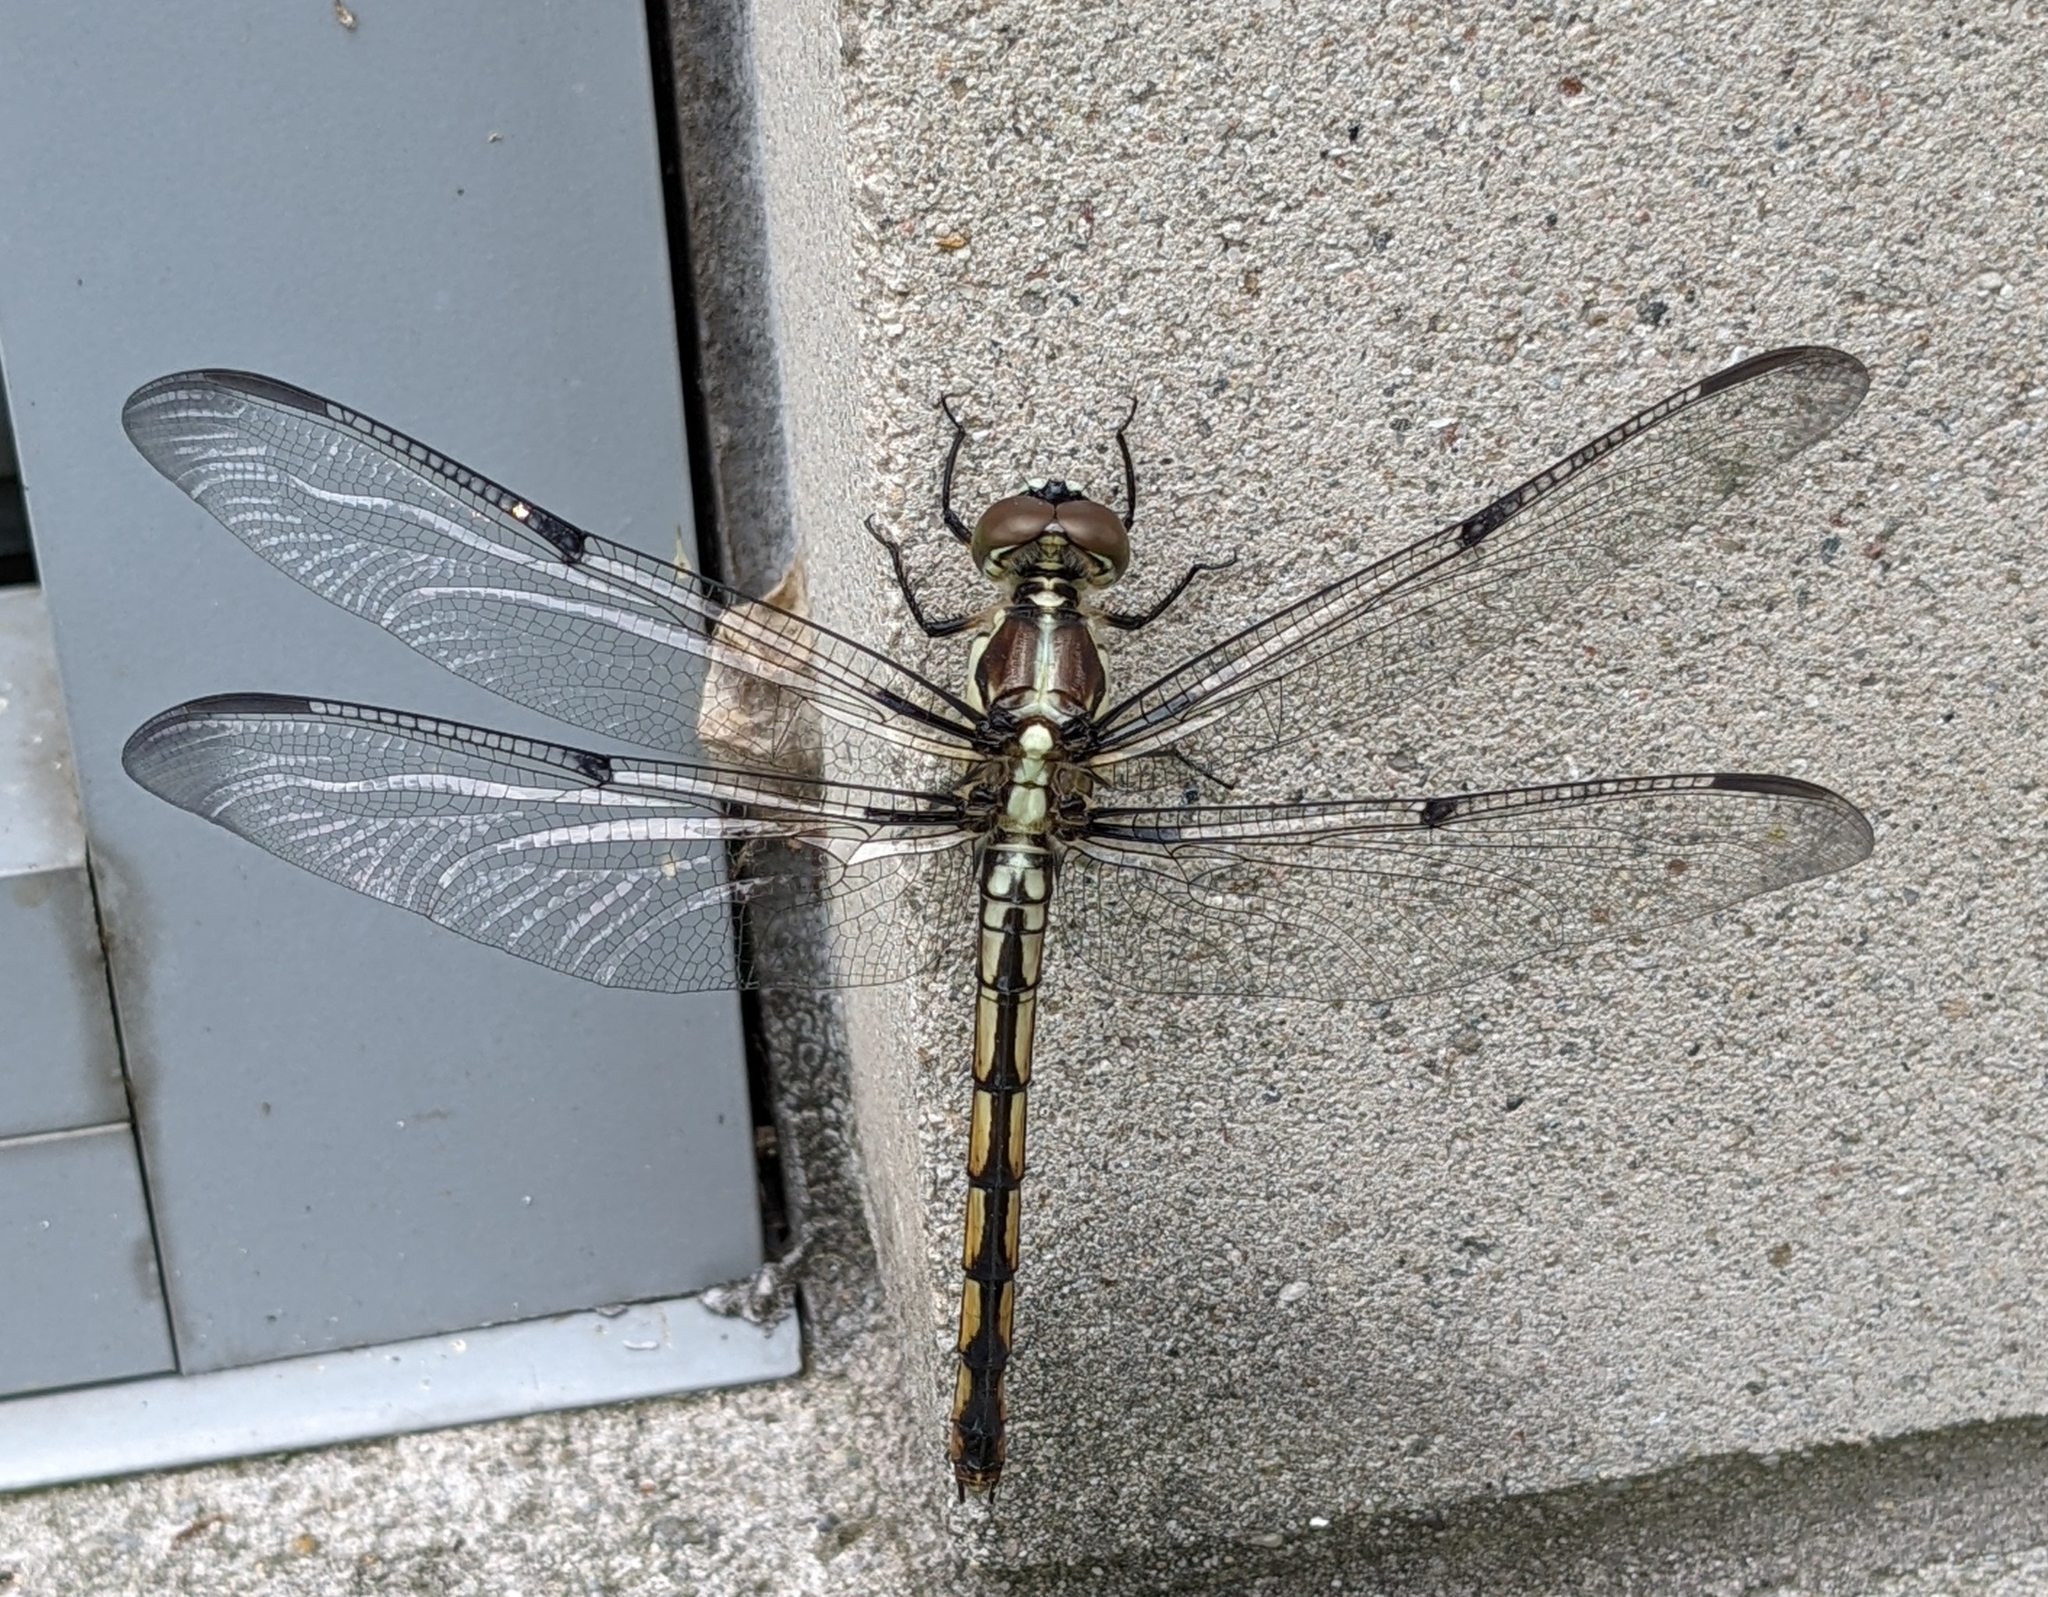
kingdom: Animalia
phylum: Arthropoda
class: Insecta
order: Odonata
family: Libellulidae
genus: Libellula
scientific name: Libellula vibrans
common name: Great blue skimmer
